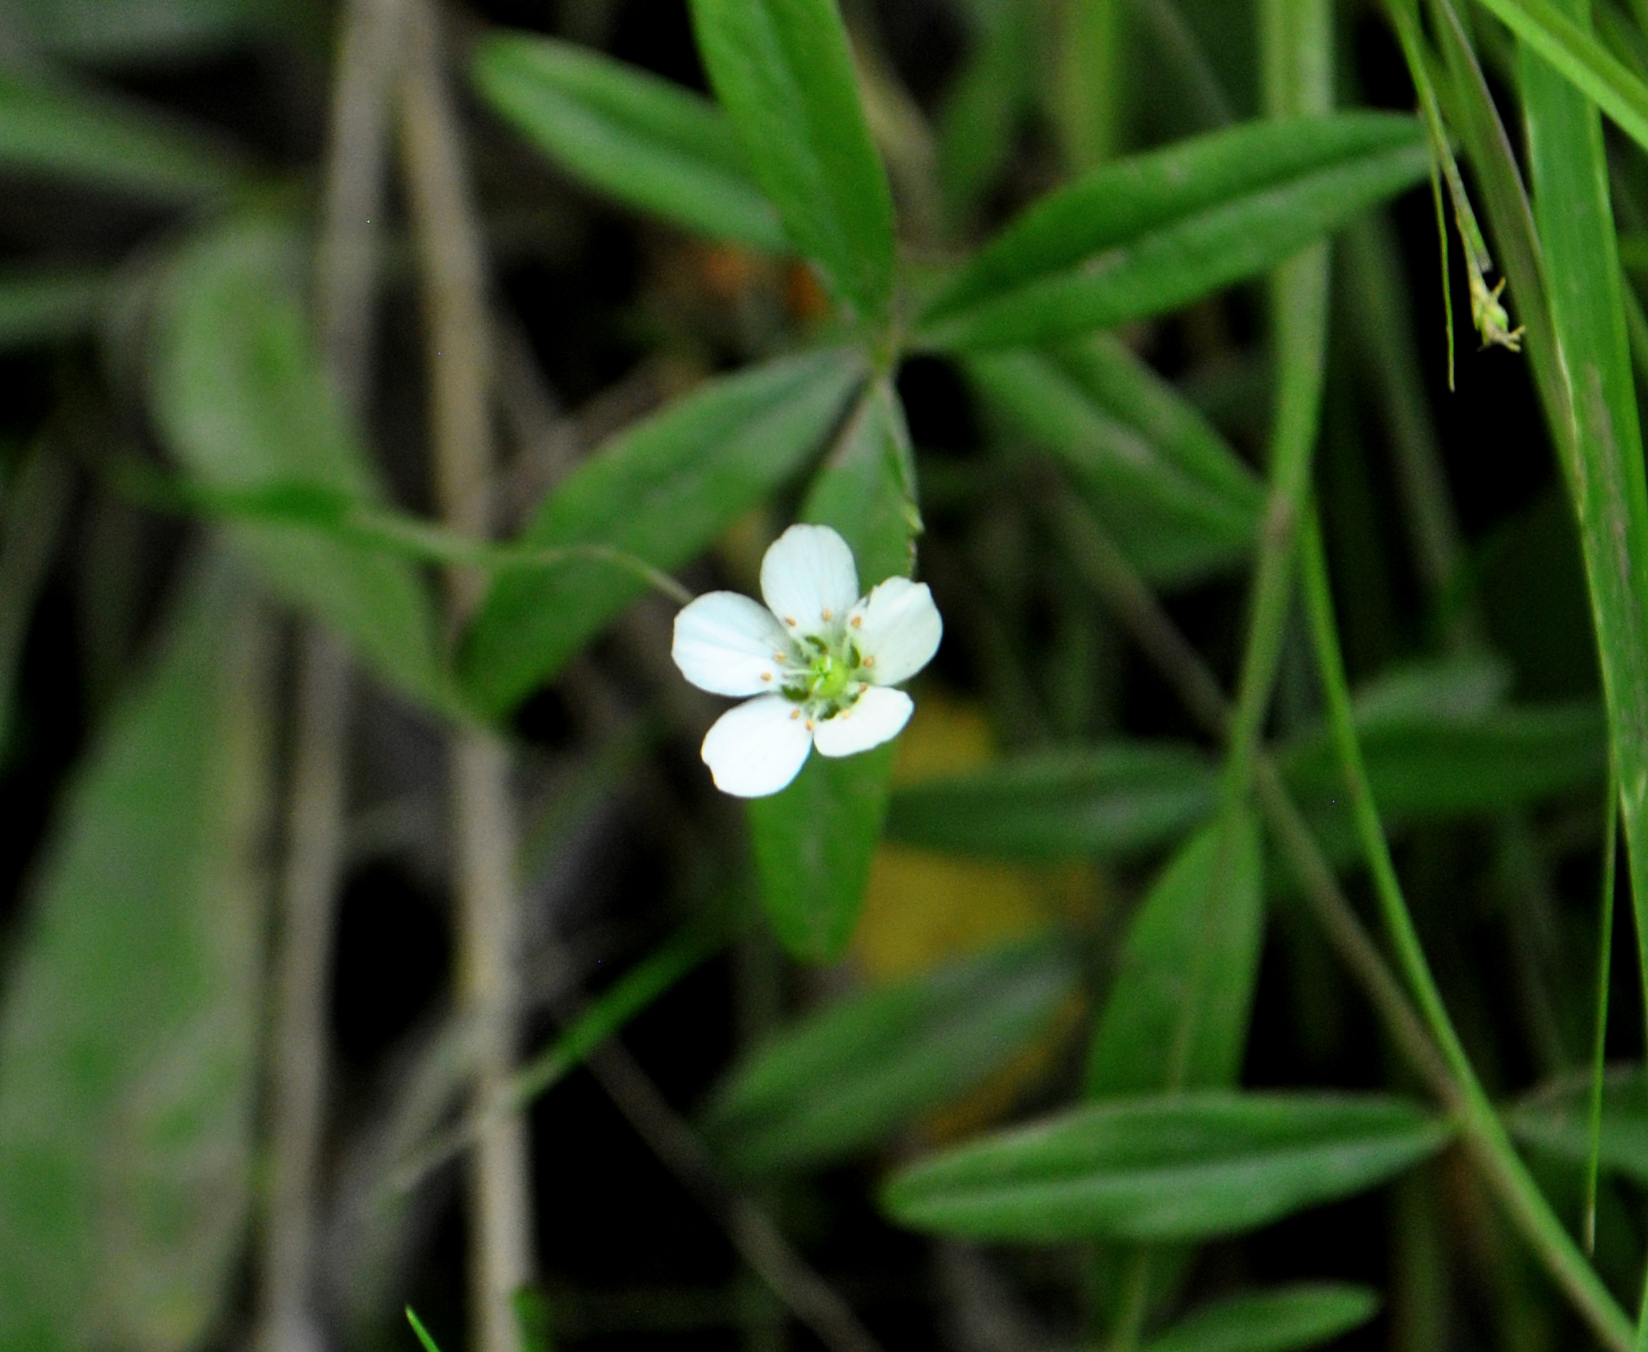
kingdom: Plantae
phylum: Tracheophyta
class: Magnoliopsida
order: Caryophyllales
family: Caryophyllaceae
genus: Moehringia
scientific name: Moehringia lateriflora
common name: Blunt-leaved sandwort
